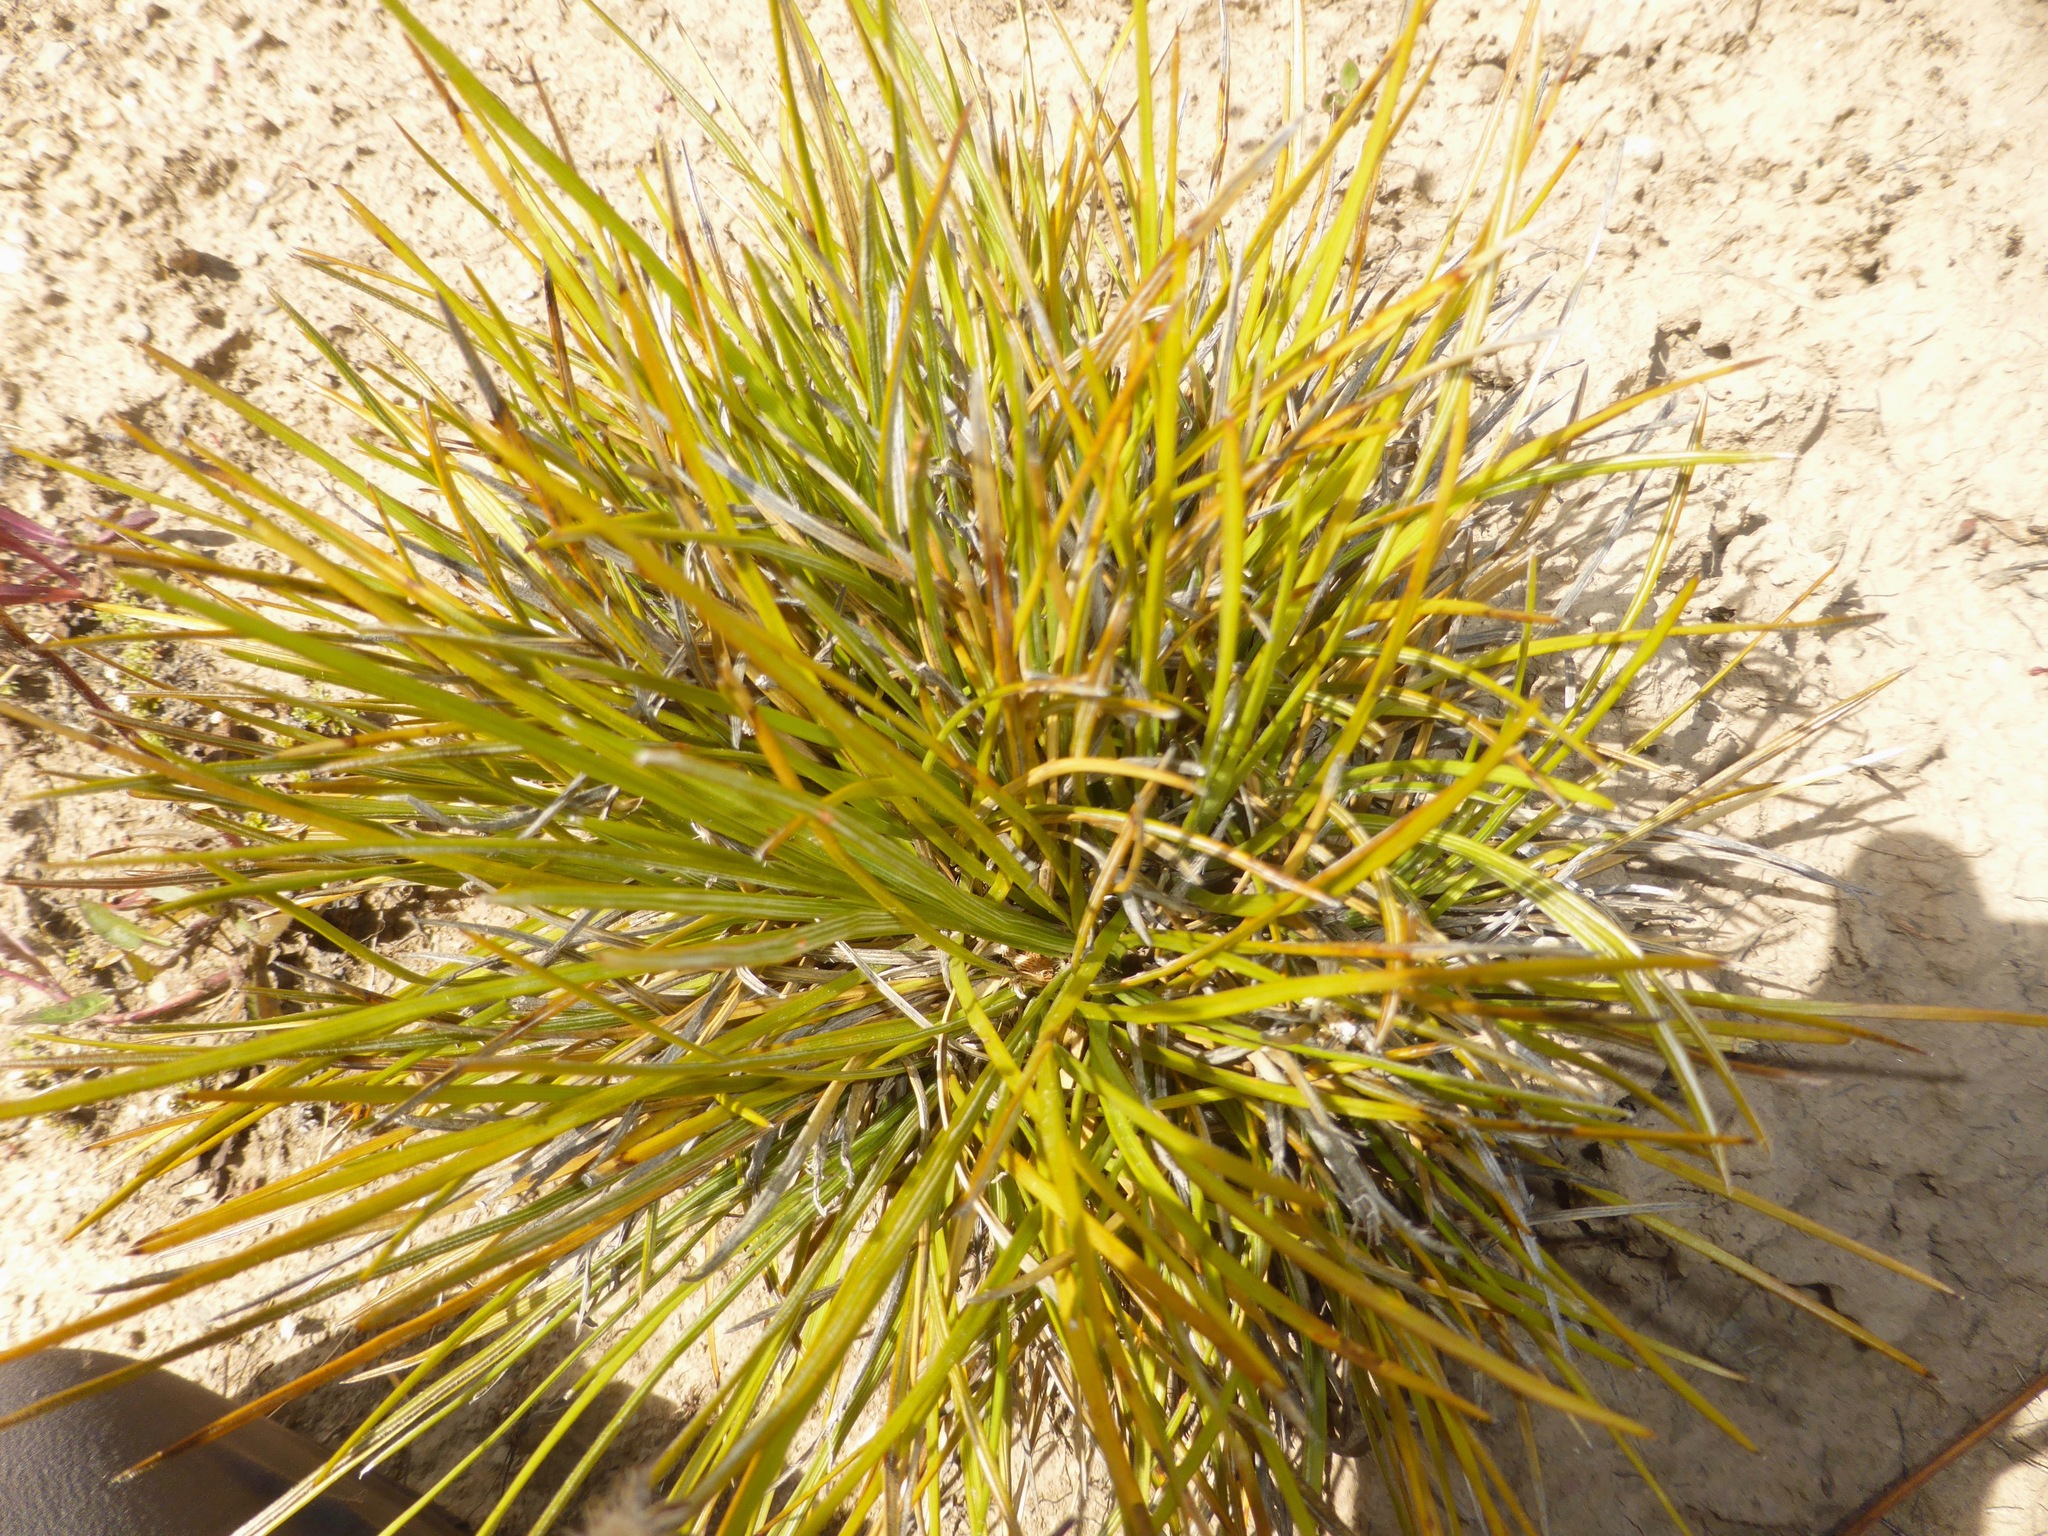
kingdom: Plantae
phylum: Tracheophyta
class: Magnoliopsida
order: Asterales
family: Asteraceae
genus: Celmisia
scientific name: Celmisia lyallii
